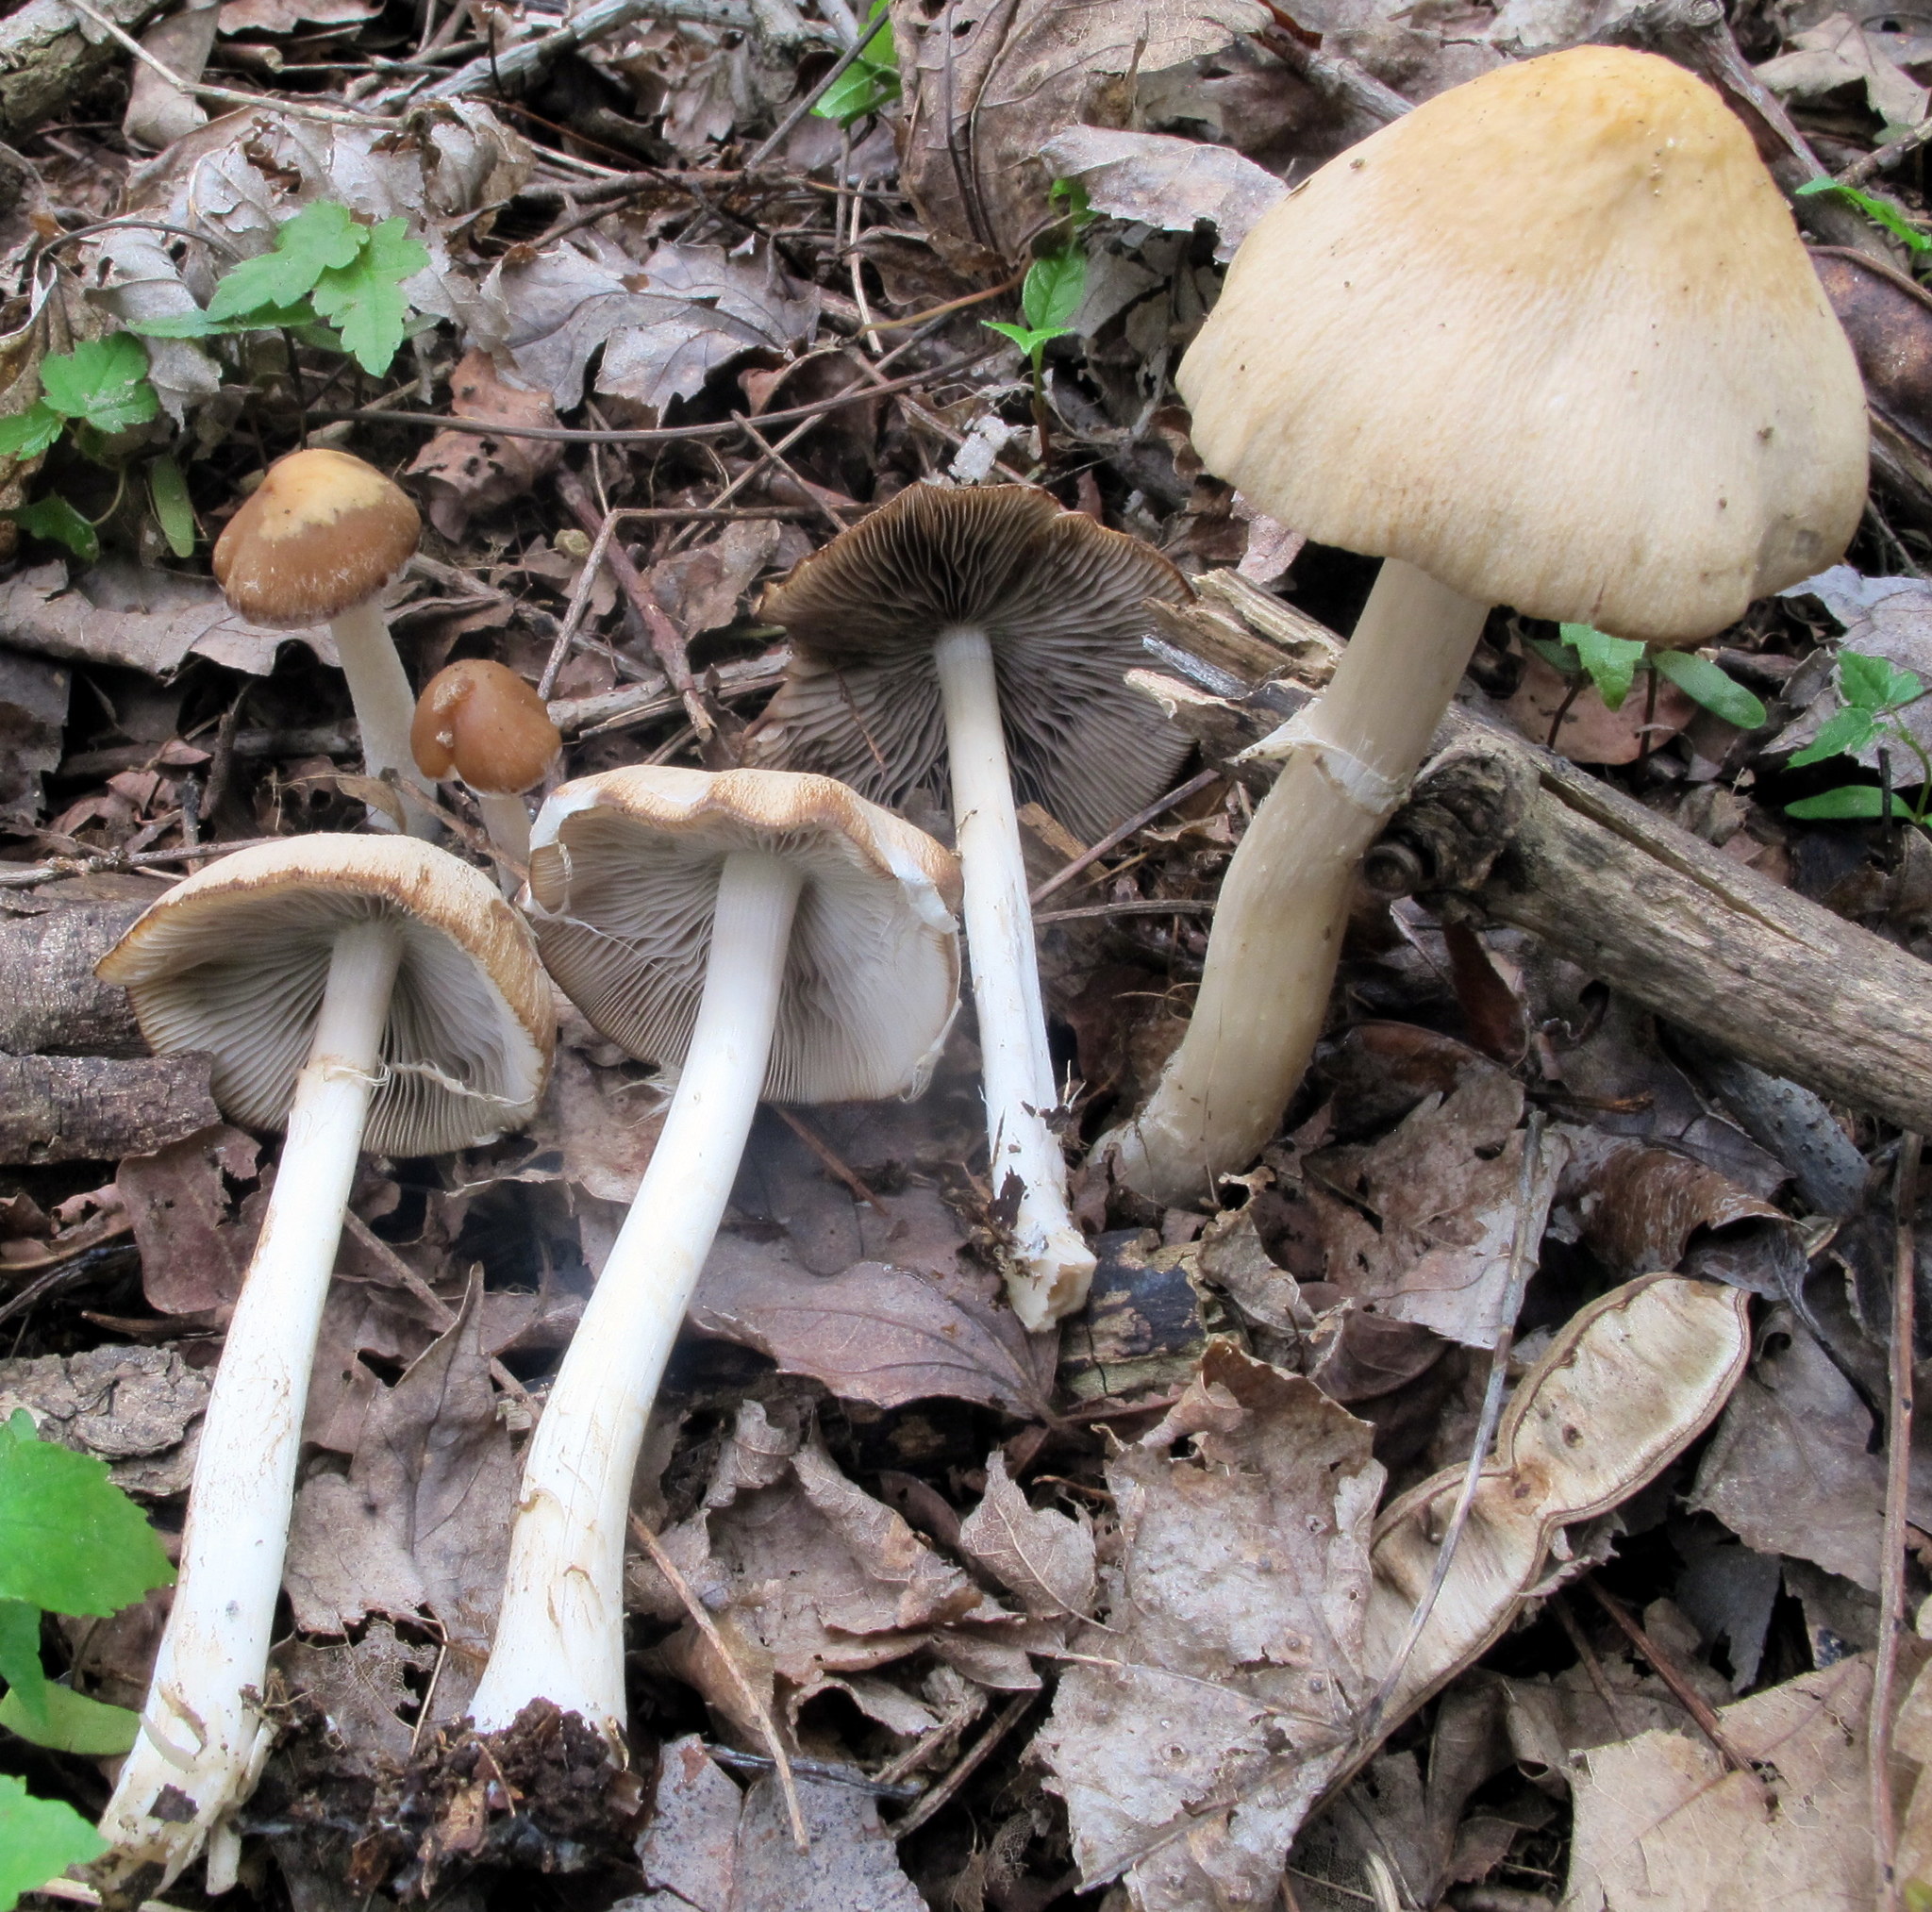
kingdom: Fungi
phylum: Basidiomycota
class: Agaricomycetes
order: Agaricales
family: Psathyrellaceae
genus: Candolleomyces
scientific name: Candolleomyces candolleanus
